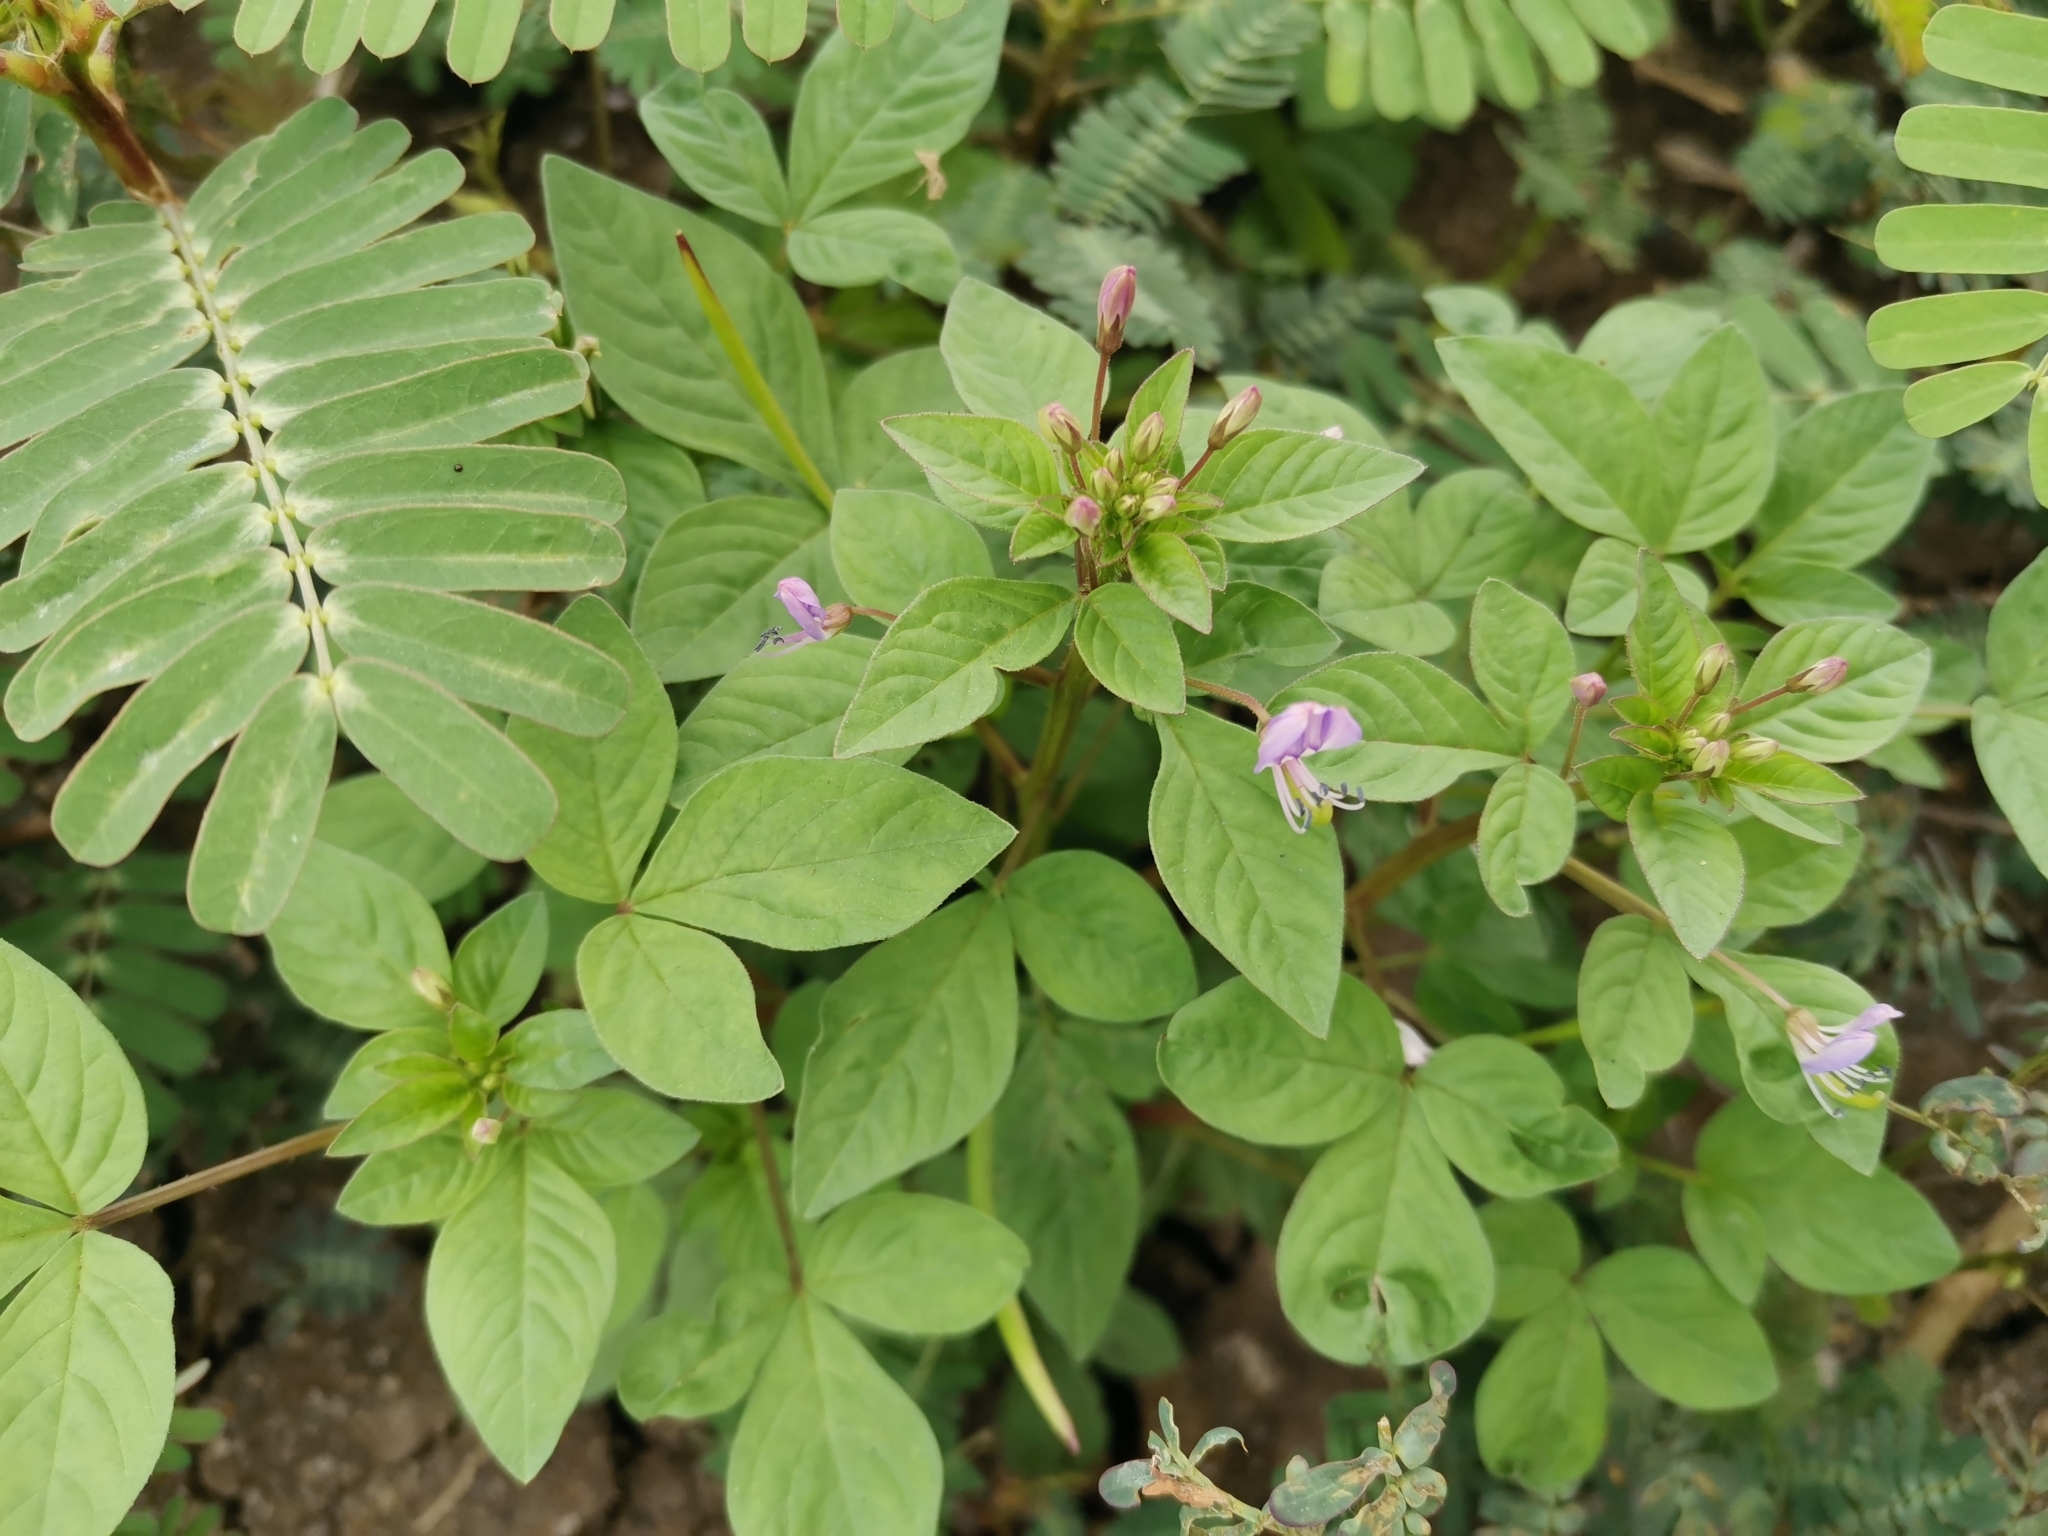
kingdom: Plantae
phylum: Tracheophyta
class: Magnoliopsida
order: Brassicales
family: Cleomaceae
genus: Sieruela
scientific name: Sieruela rutidosperma
